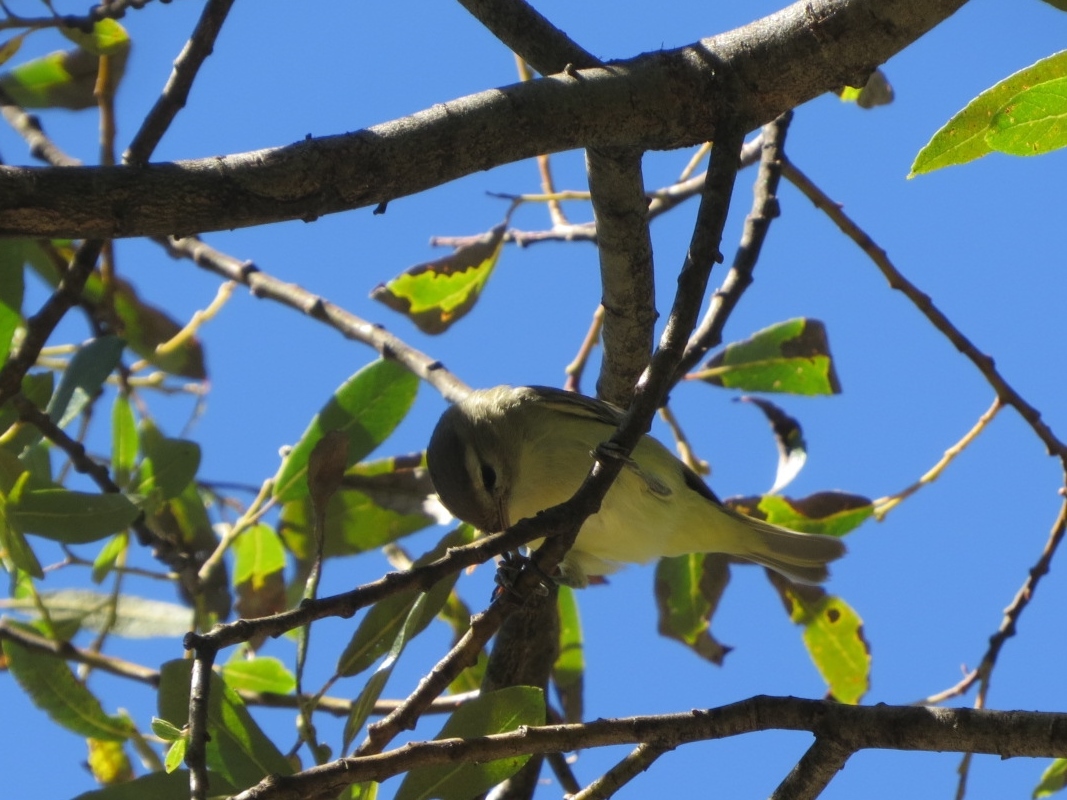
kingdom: Animalia
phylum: Chordata
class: Aves
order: Passeriformes
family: Vireonidae
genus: Vireo
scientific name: Vireo gilvus
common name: Warbling vireo
